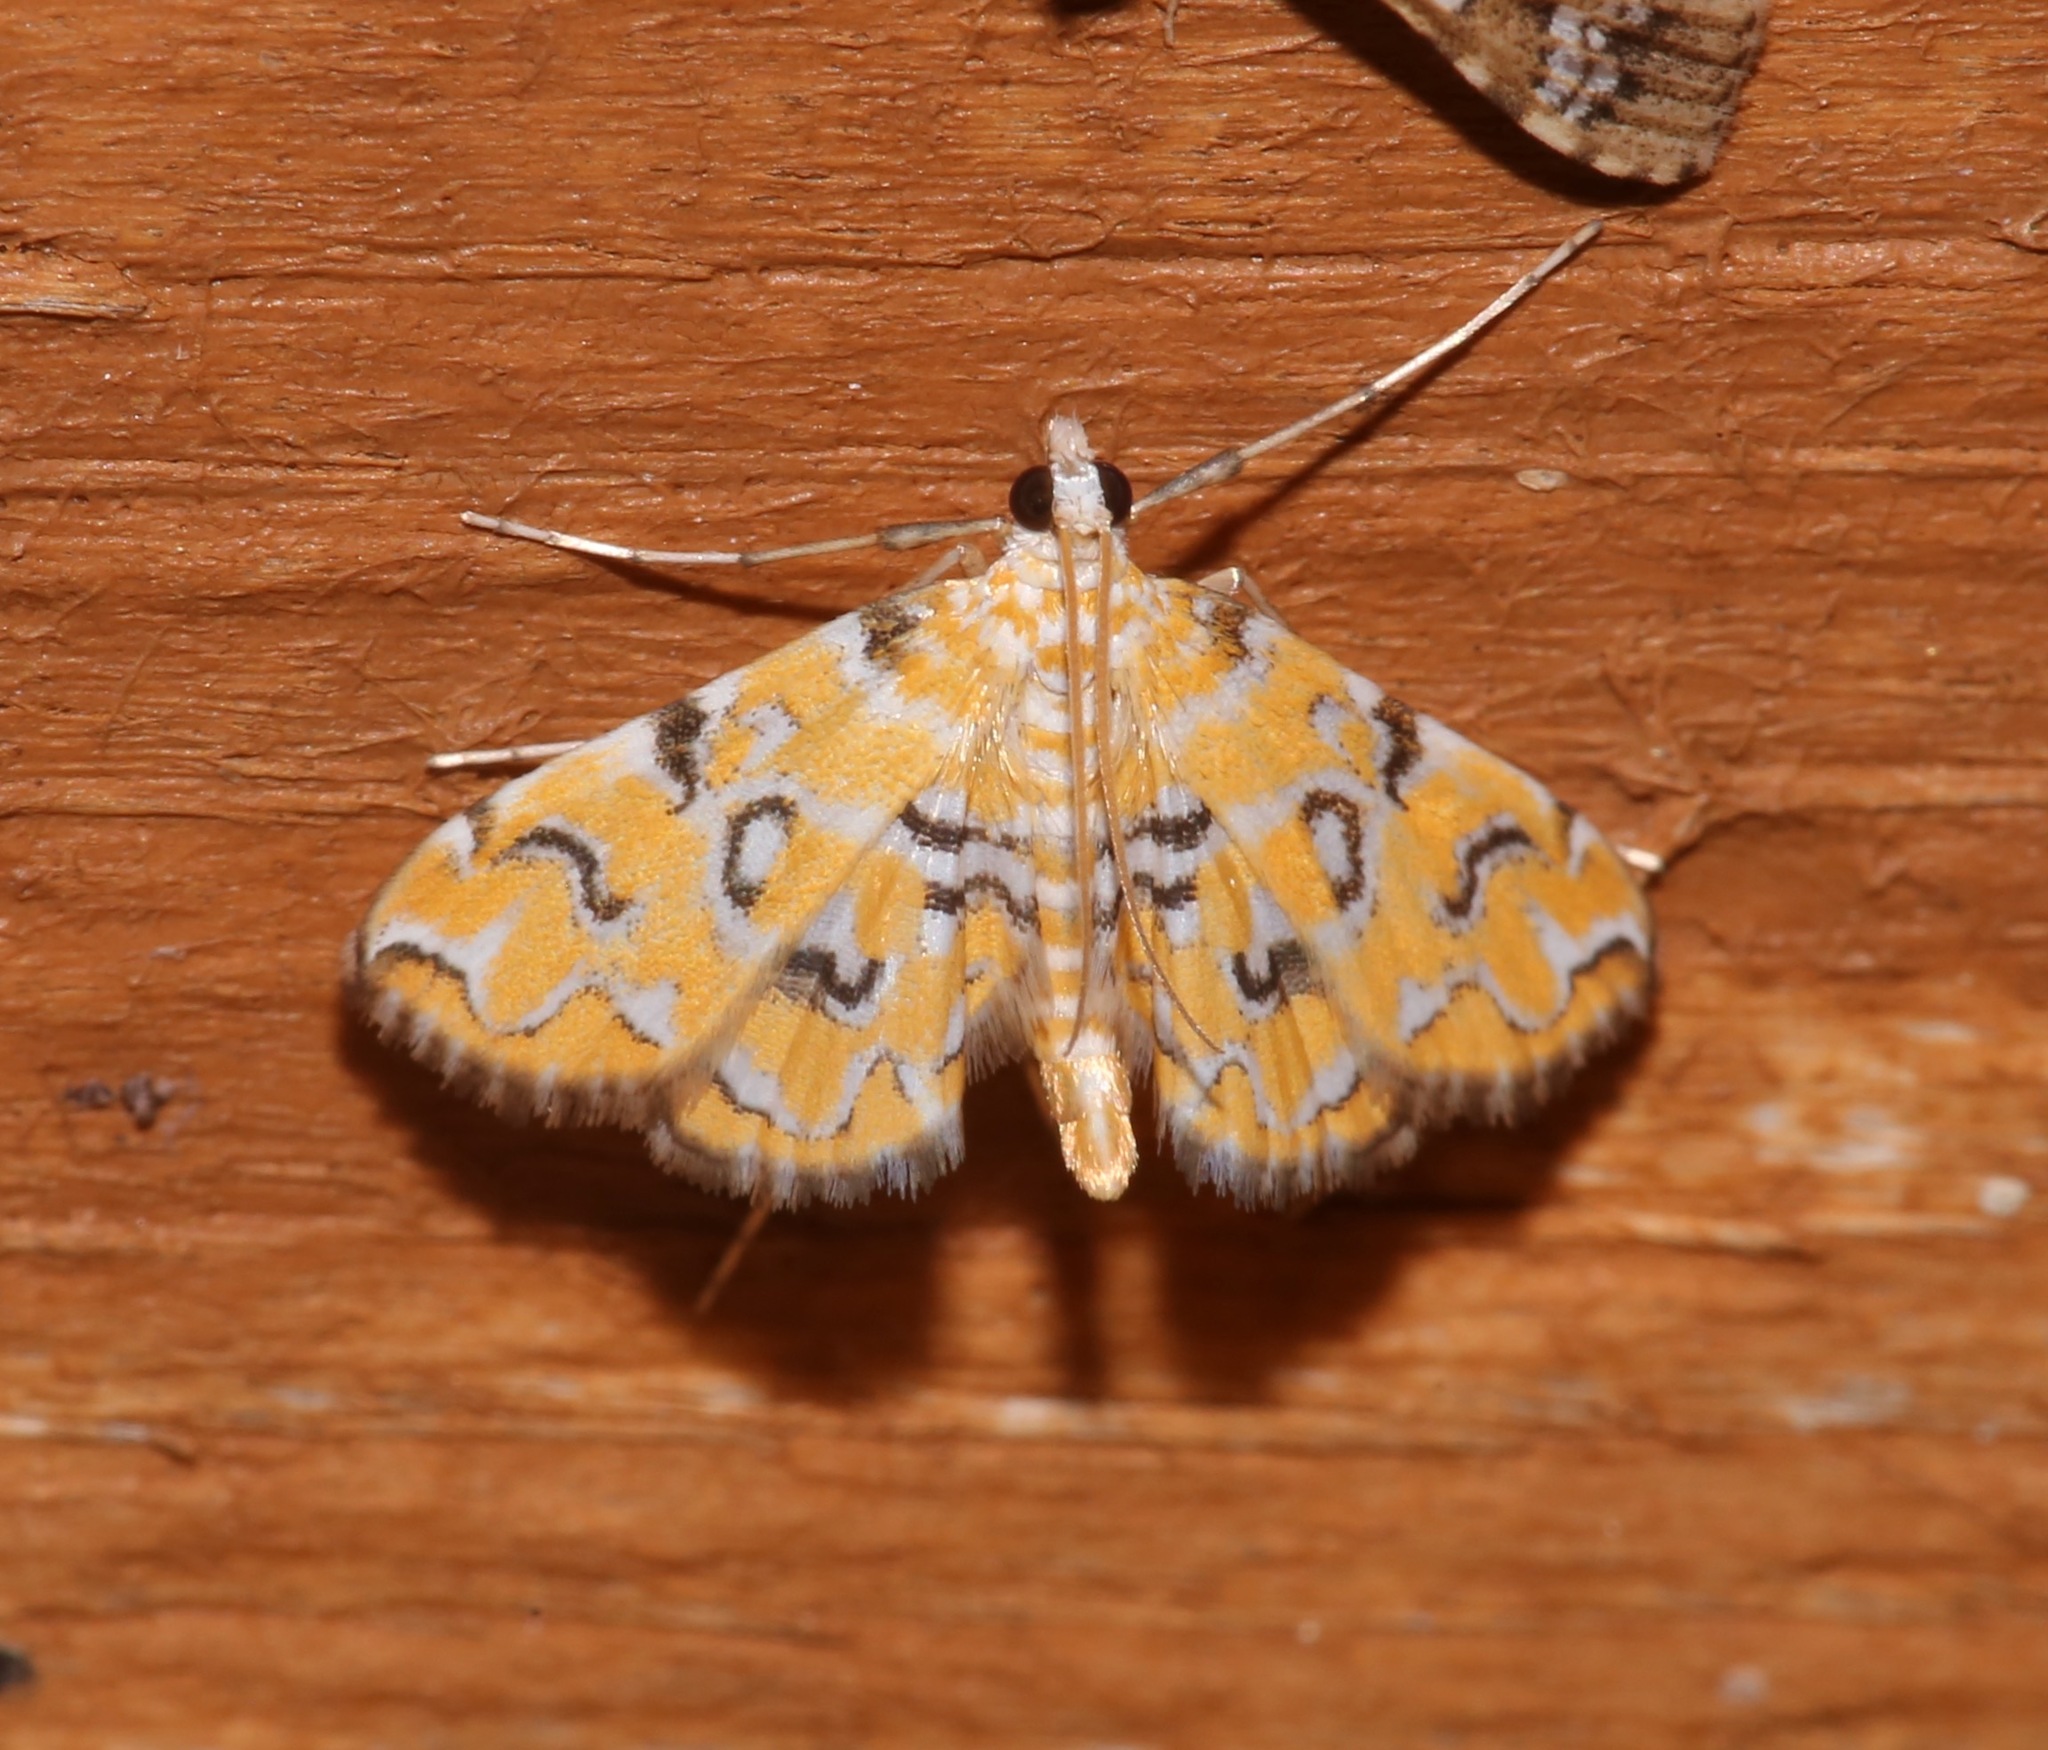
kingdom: Animalia
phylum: Arthropoda
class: Insecta
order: Lepidoptera
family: Crambidae
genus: Elophila
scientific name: Elophila icciusalis
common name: Pondside pyralid moth
